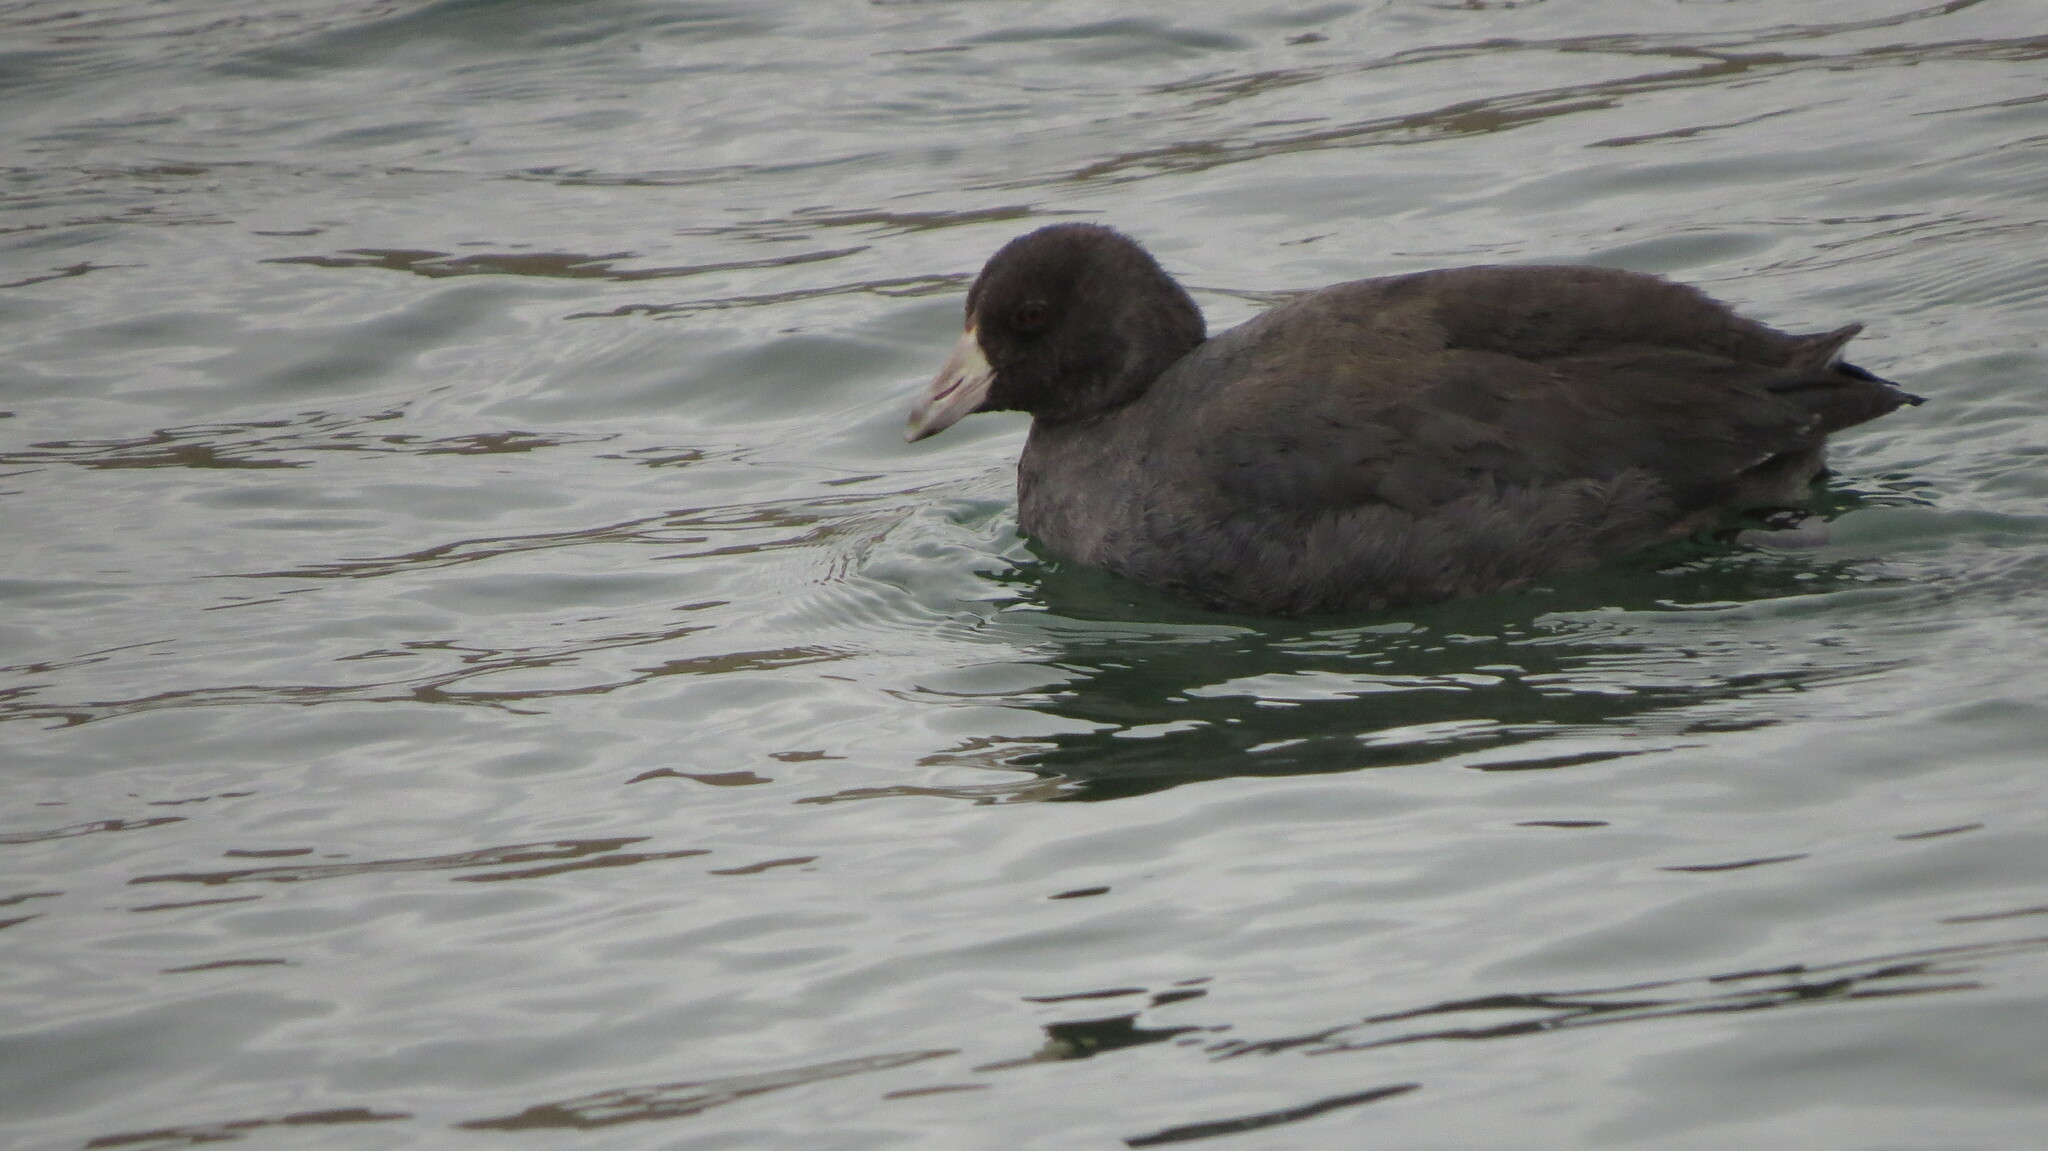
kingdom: Animalia
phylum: Chordata
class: Aves
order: Gruiformes
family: Rallidae
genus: Fulica
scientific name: Fulica americana
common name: American coot
